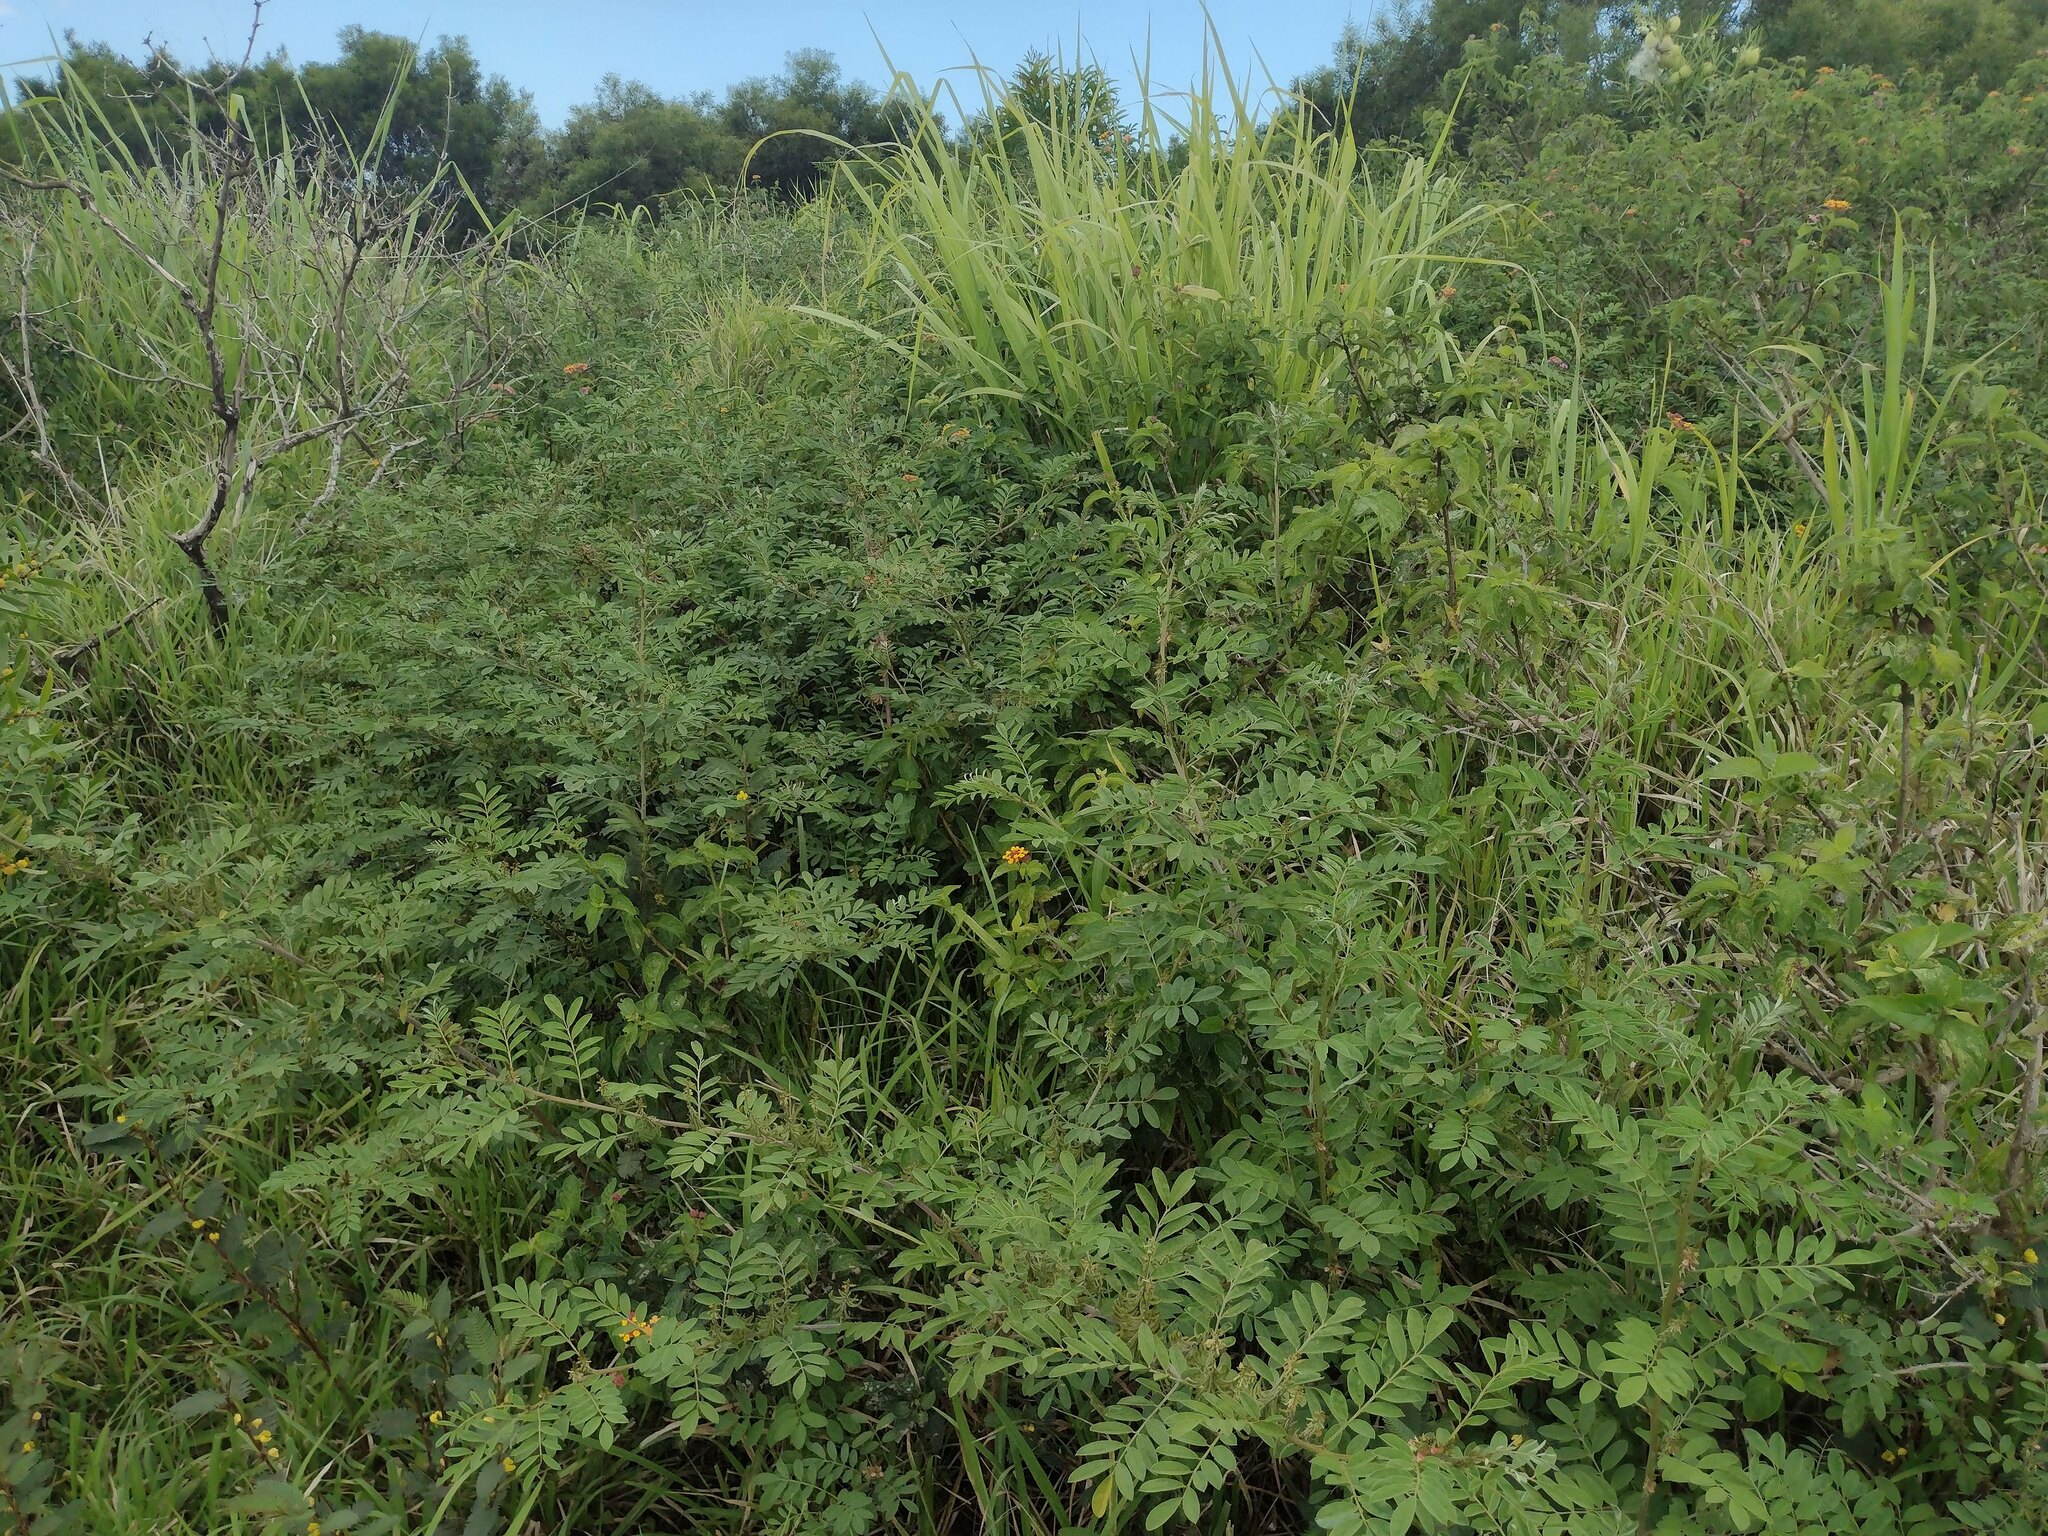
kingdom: Plantae
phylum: Tracheophyta
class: Magnoliopsida
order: Fabales
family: Fabaceae
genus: Indigofera
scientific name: Indigofera suffruticosa
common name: Anil de pasto
